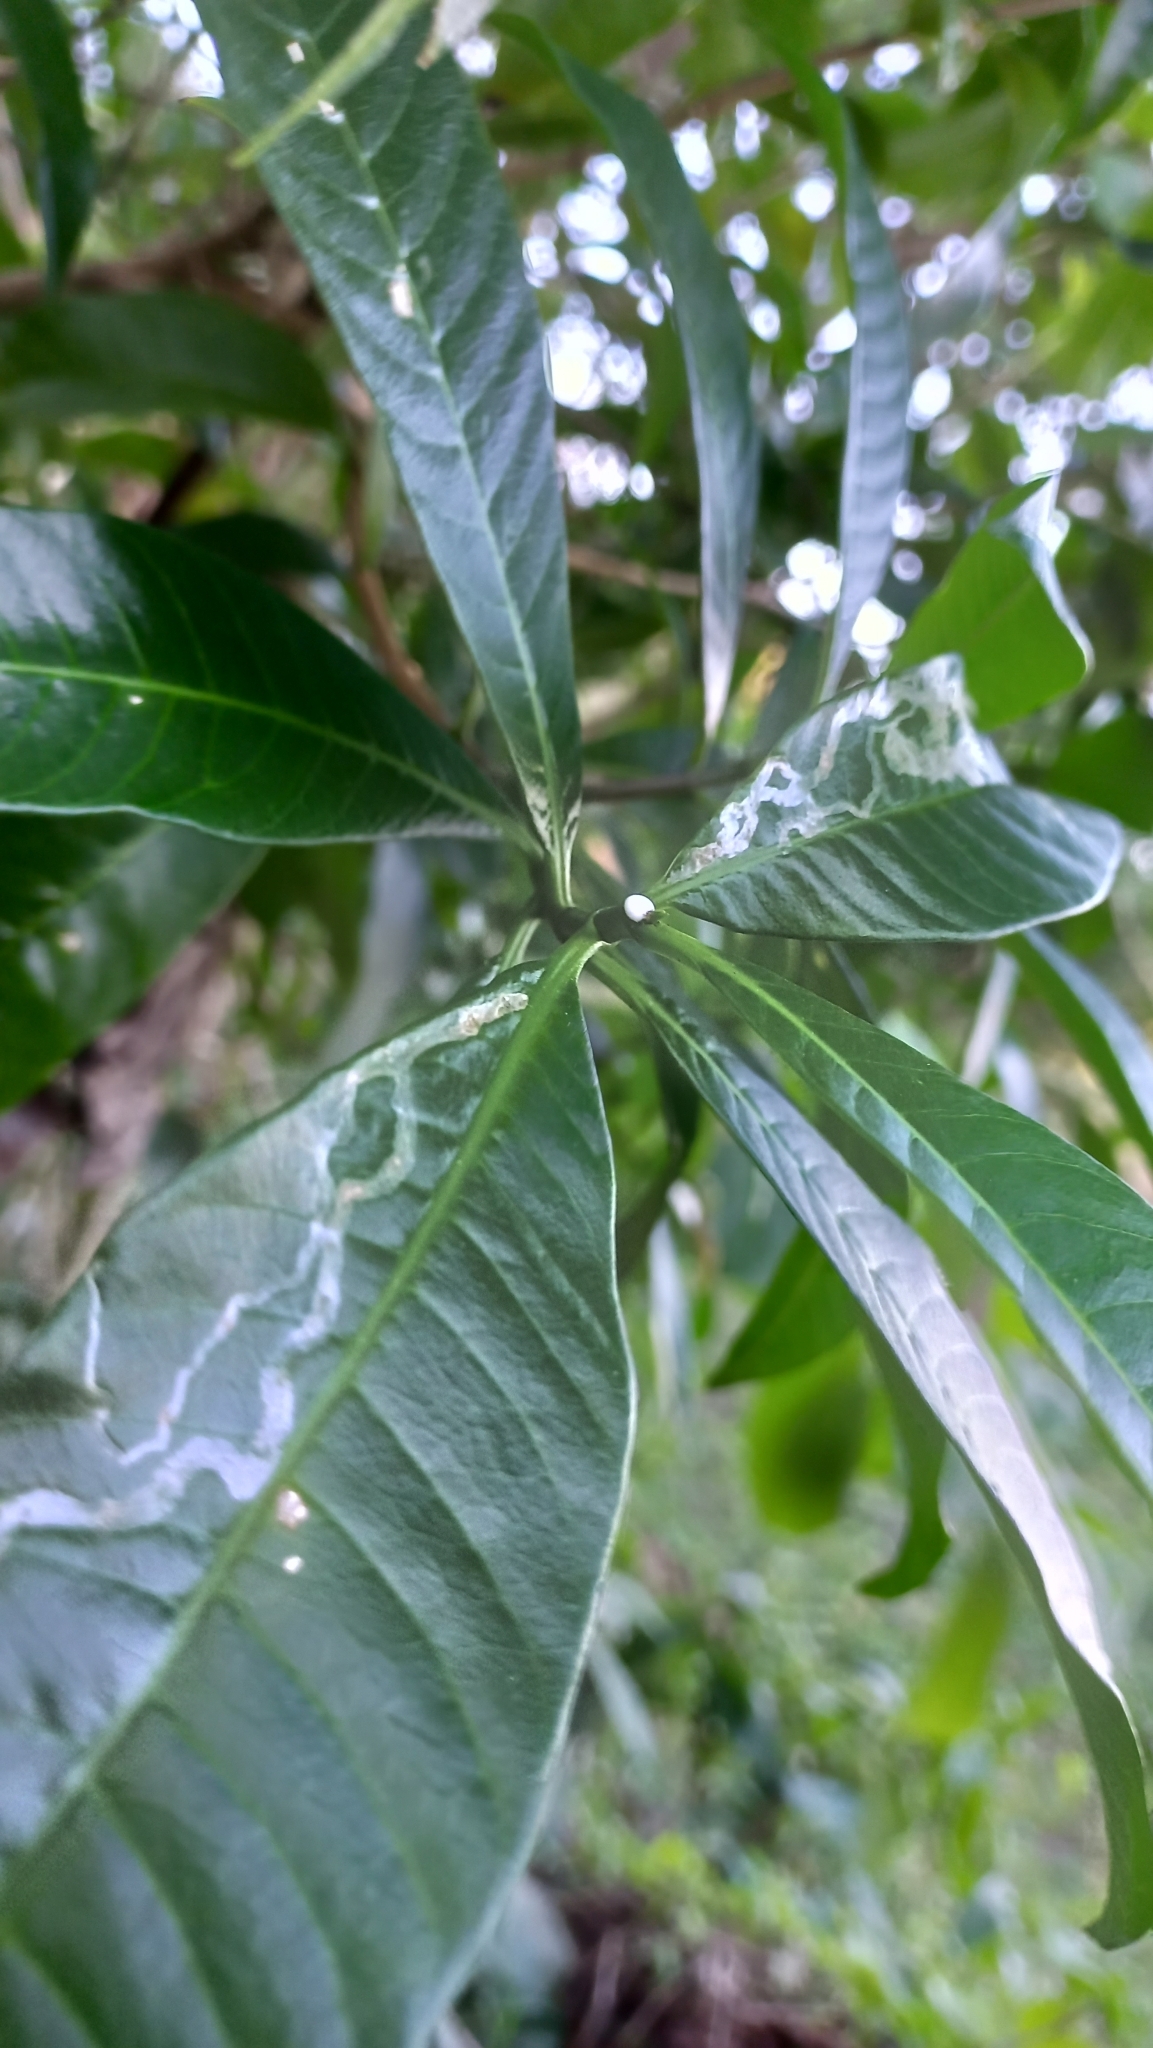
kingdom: Plantae
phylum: Tracheophyta
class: Magnoliopsida
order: Gentianales
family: Apocynaceae
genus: Tabernaemontana
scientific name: Tabernaemontana catharinensis
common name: Pinwheel-flower
